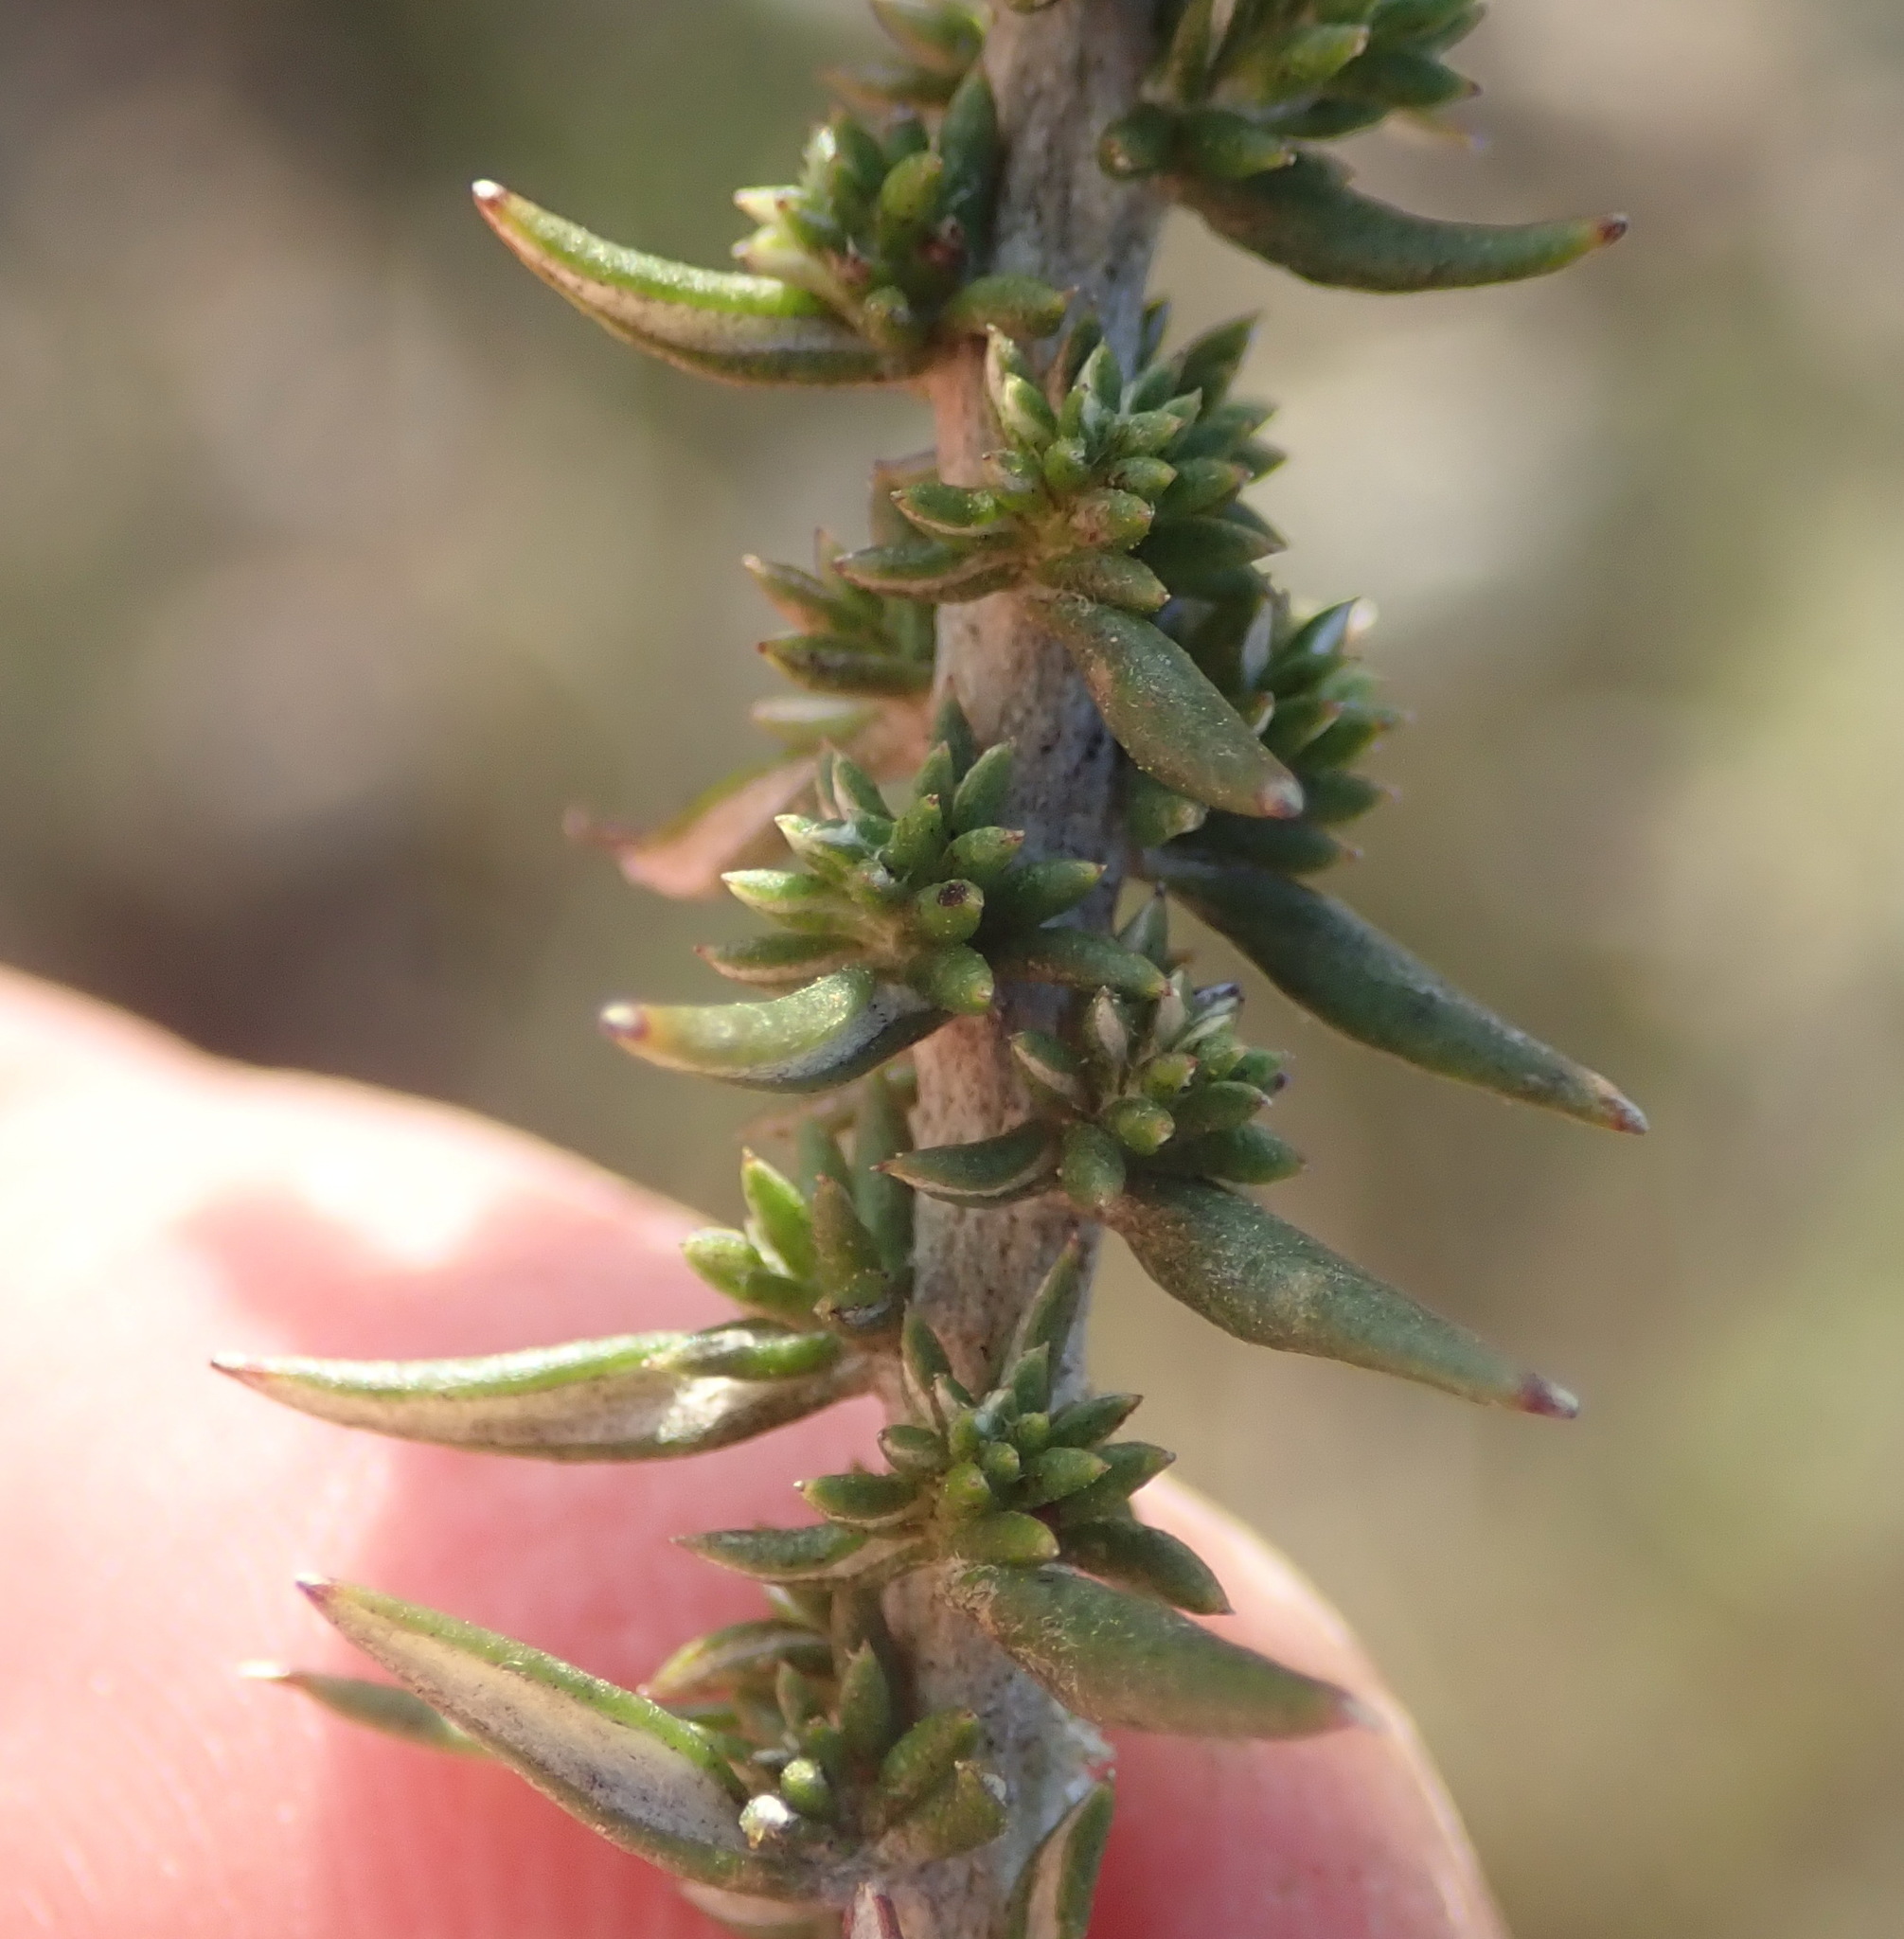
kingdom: Plantae
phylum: Tracheophyta
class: Magnoliopsida
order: Asterales
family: Asteraceae
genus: Metalasia
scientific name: Metalasia octoflora
